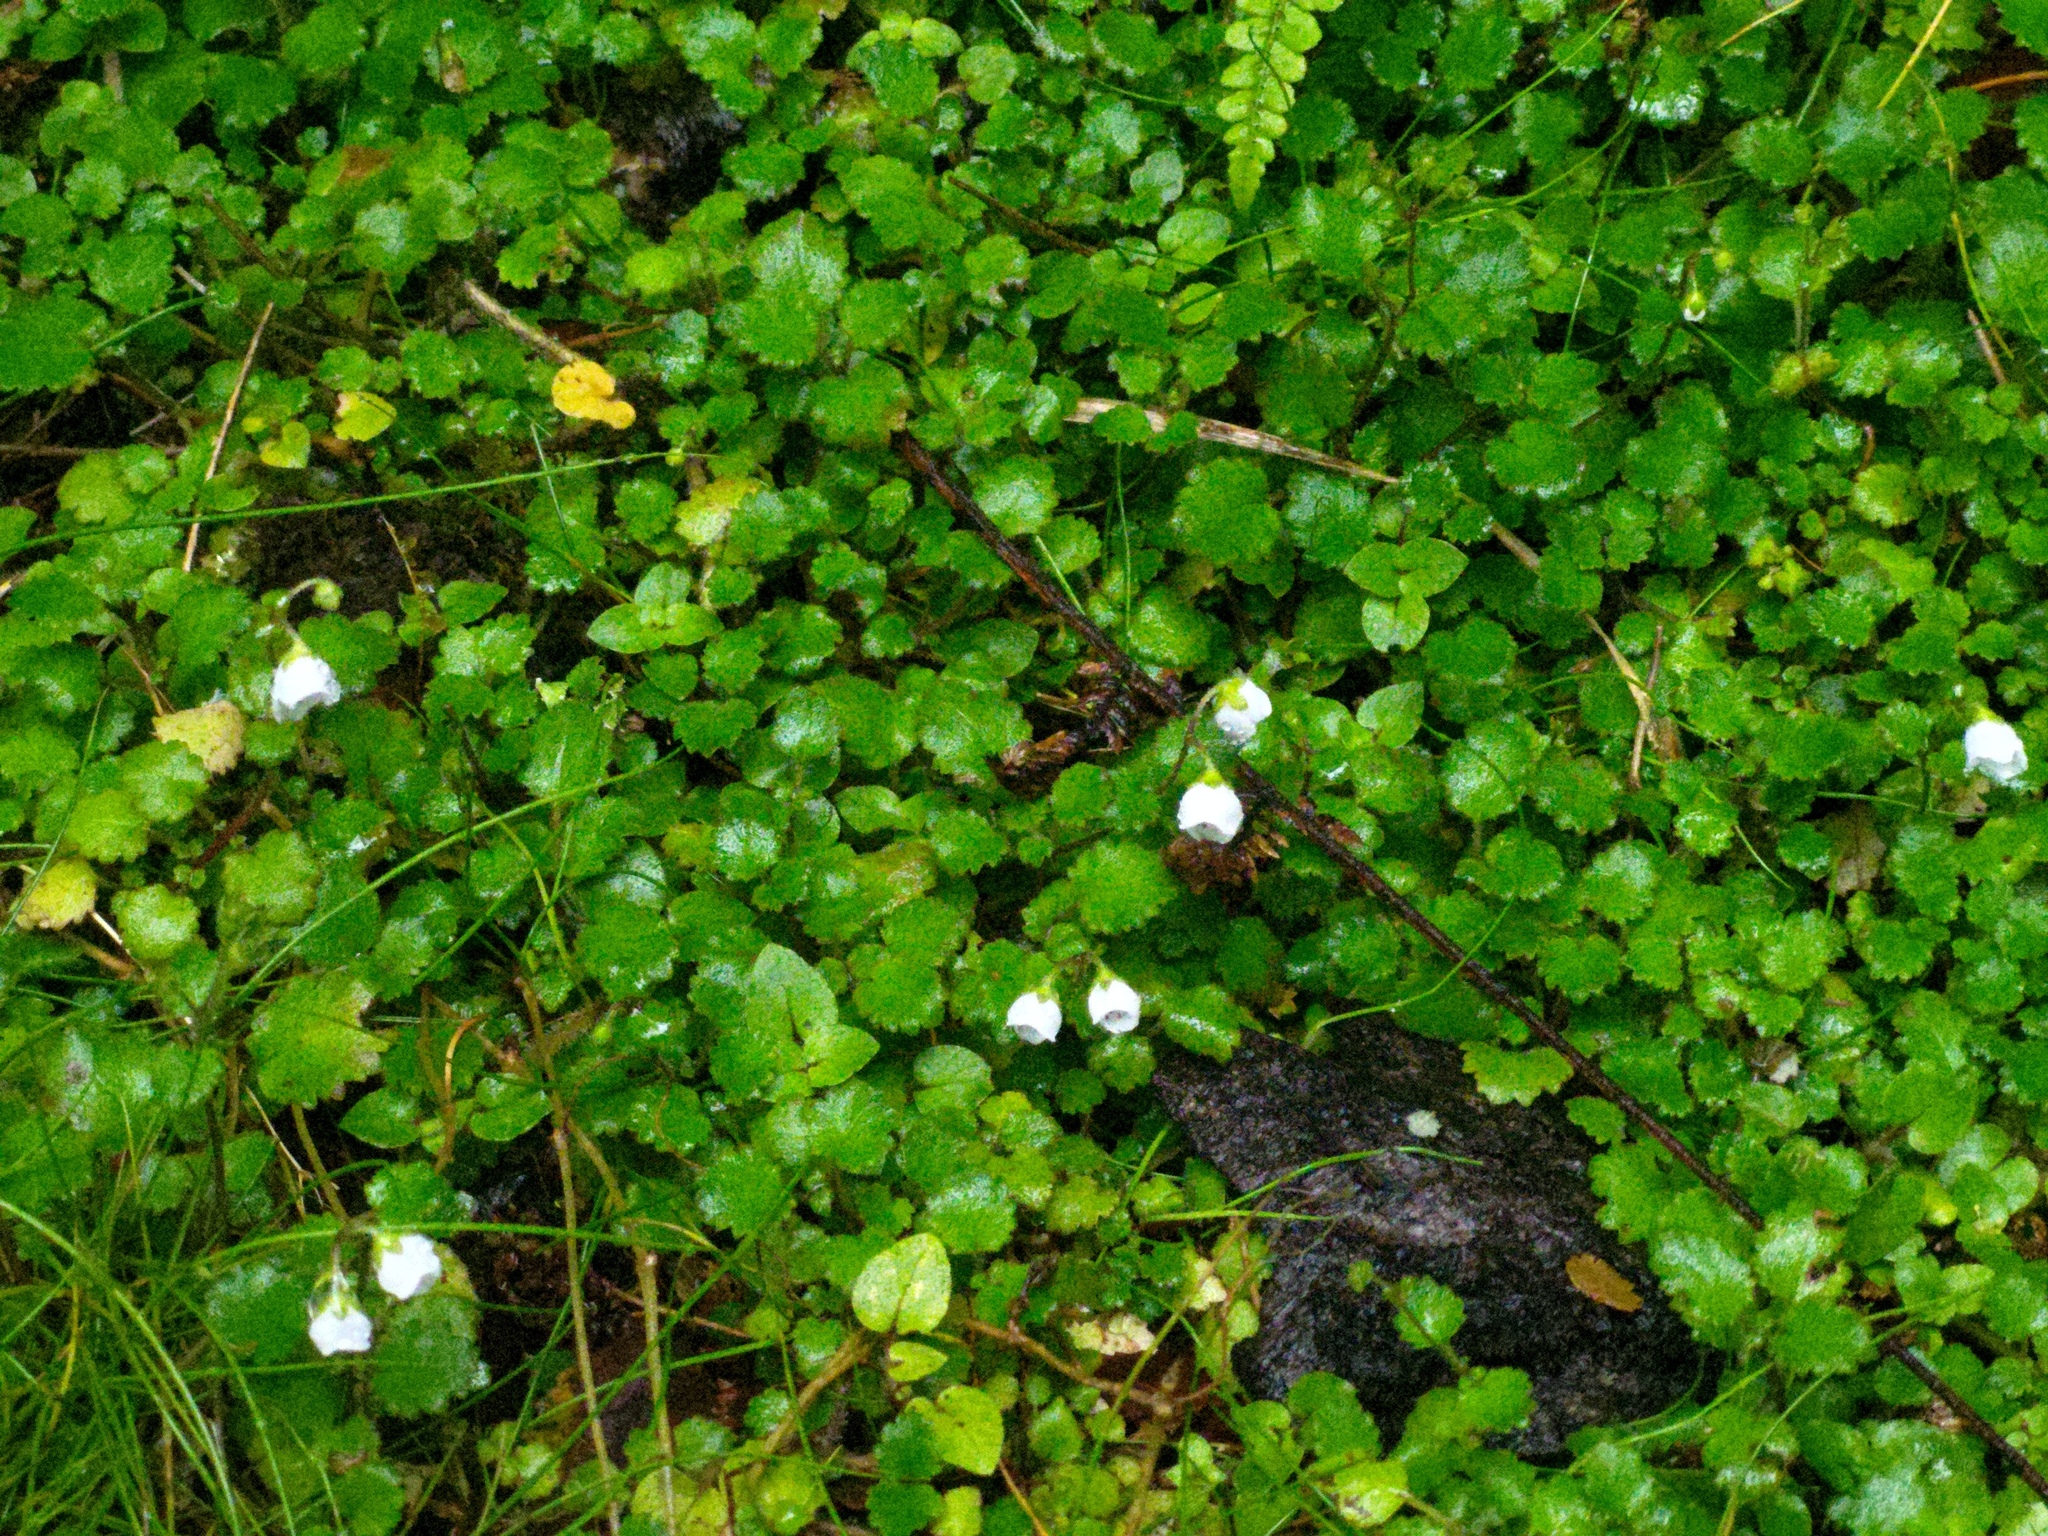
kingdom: Plantae
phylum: Tracheophyta
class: Magnoliopsida
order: Lamiales
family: Calceolariaceae
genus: Jovellana
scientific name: Jovellana repens
